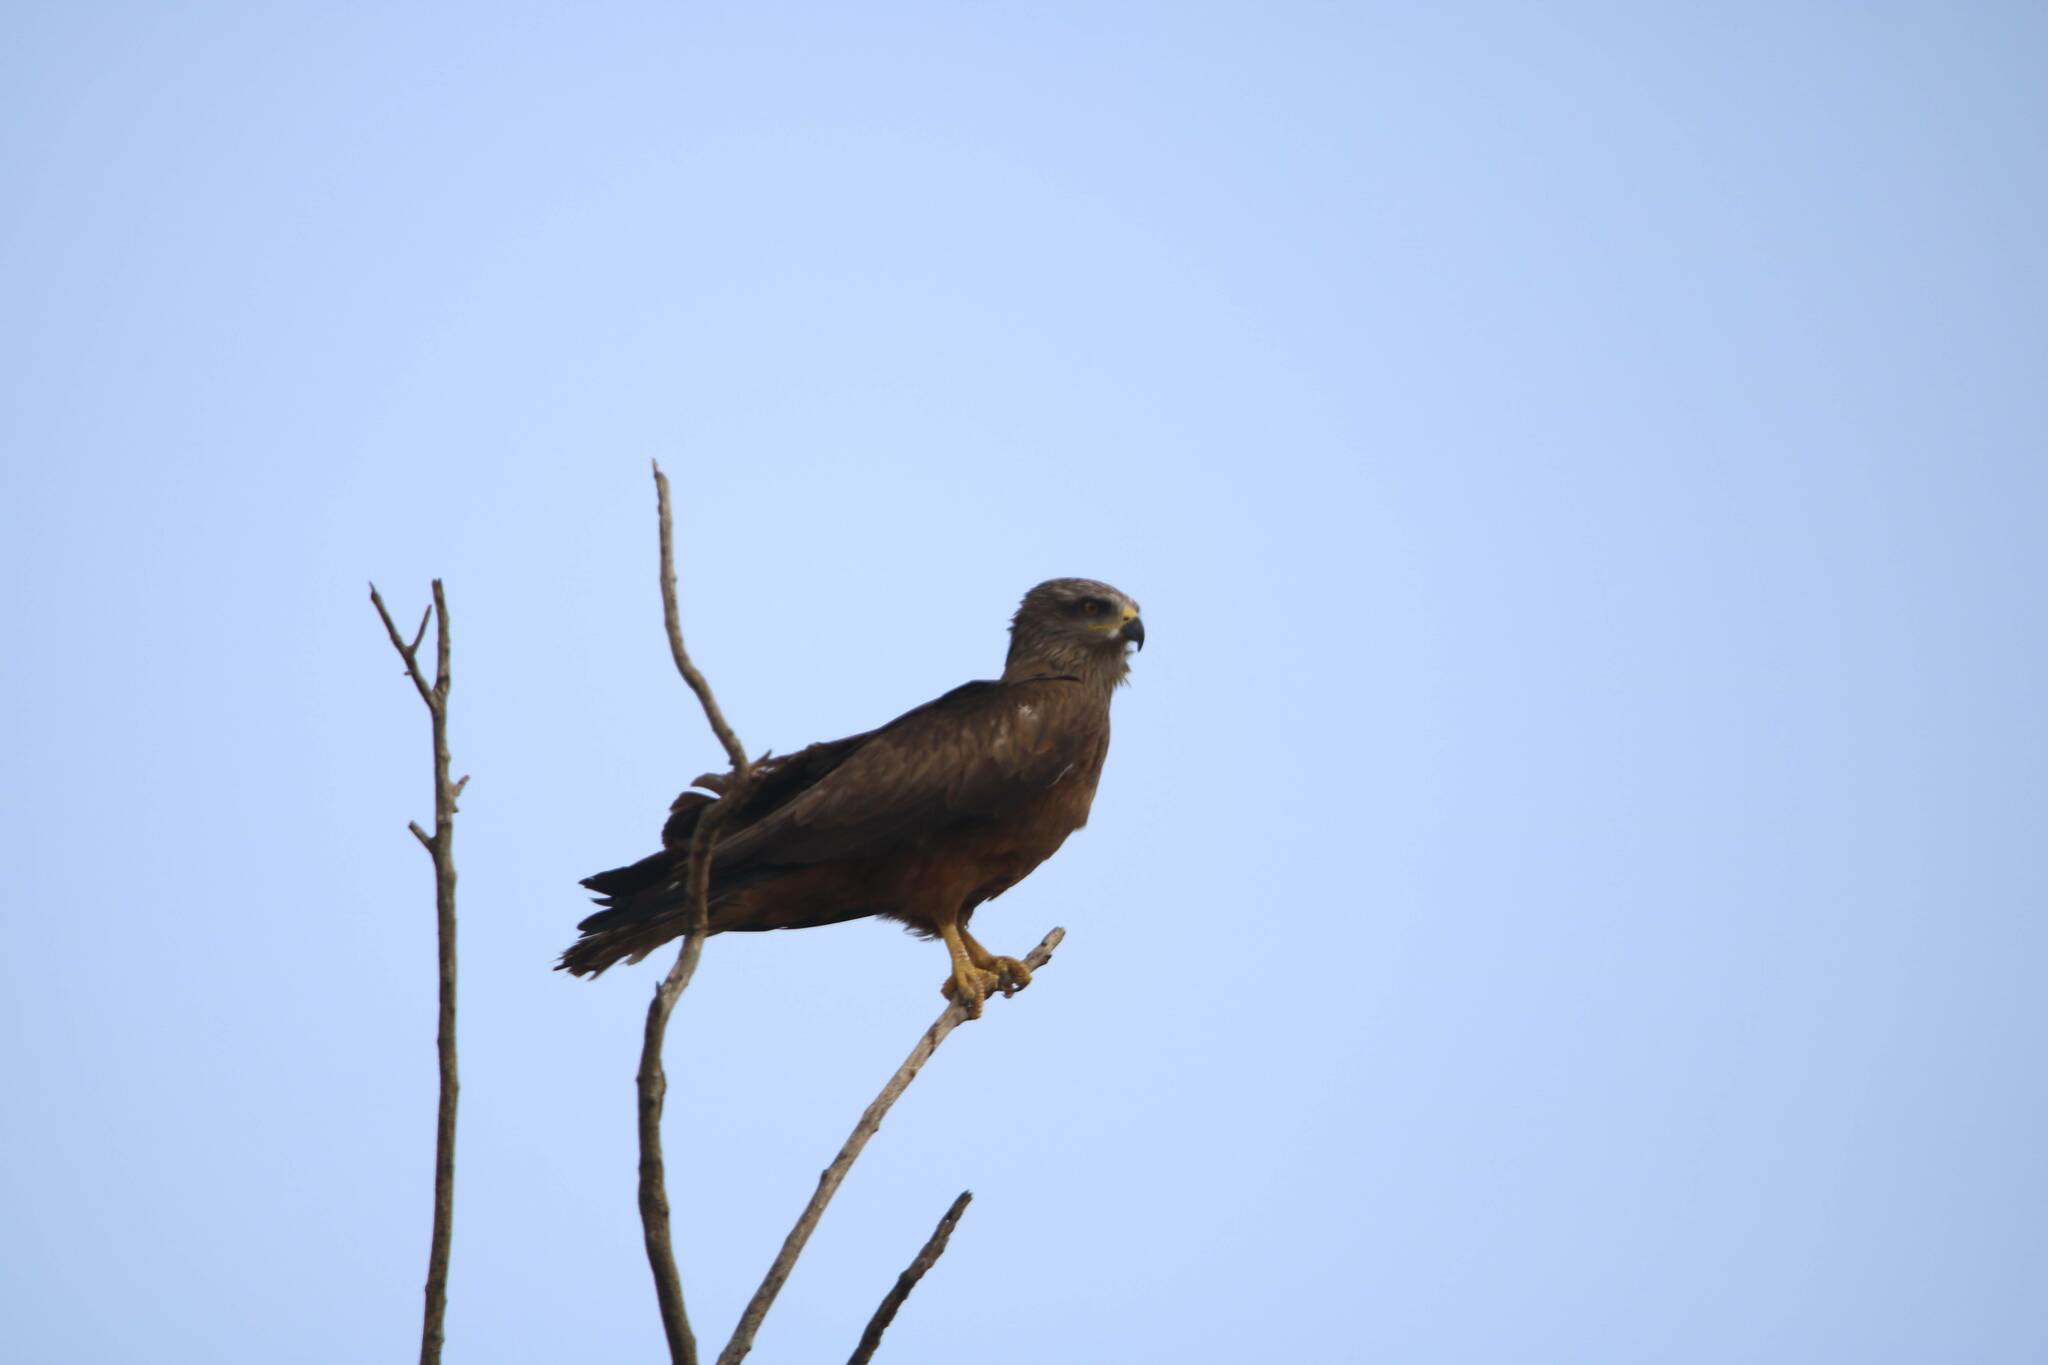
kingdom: Animalia
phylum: Chordata
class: Aves
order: Accipitriformes
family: Accipitridae
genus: Milvus
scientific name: Milvus migrans
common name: Black kite
